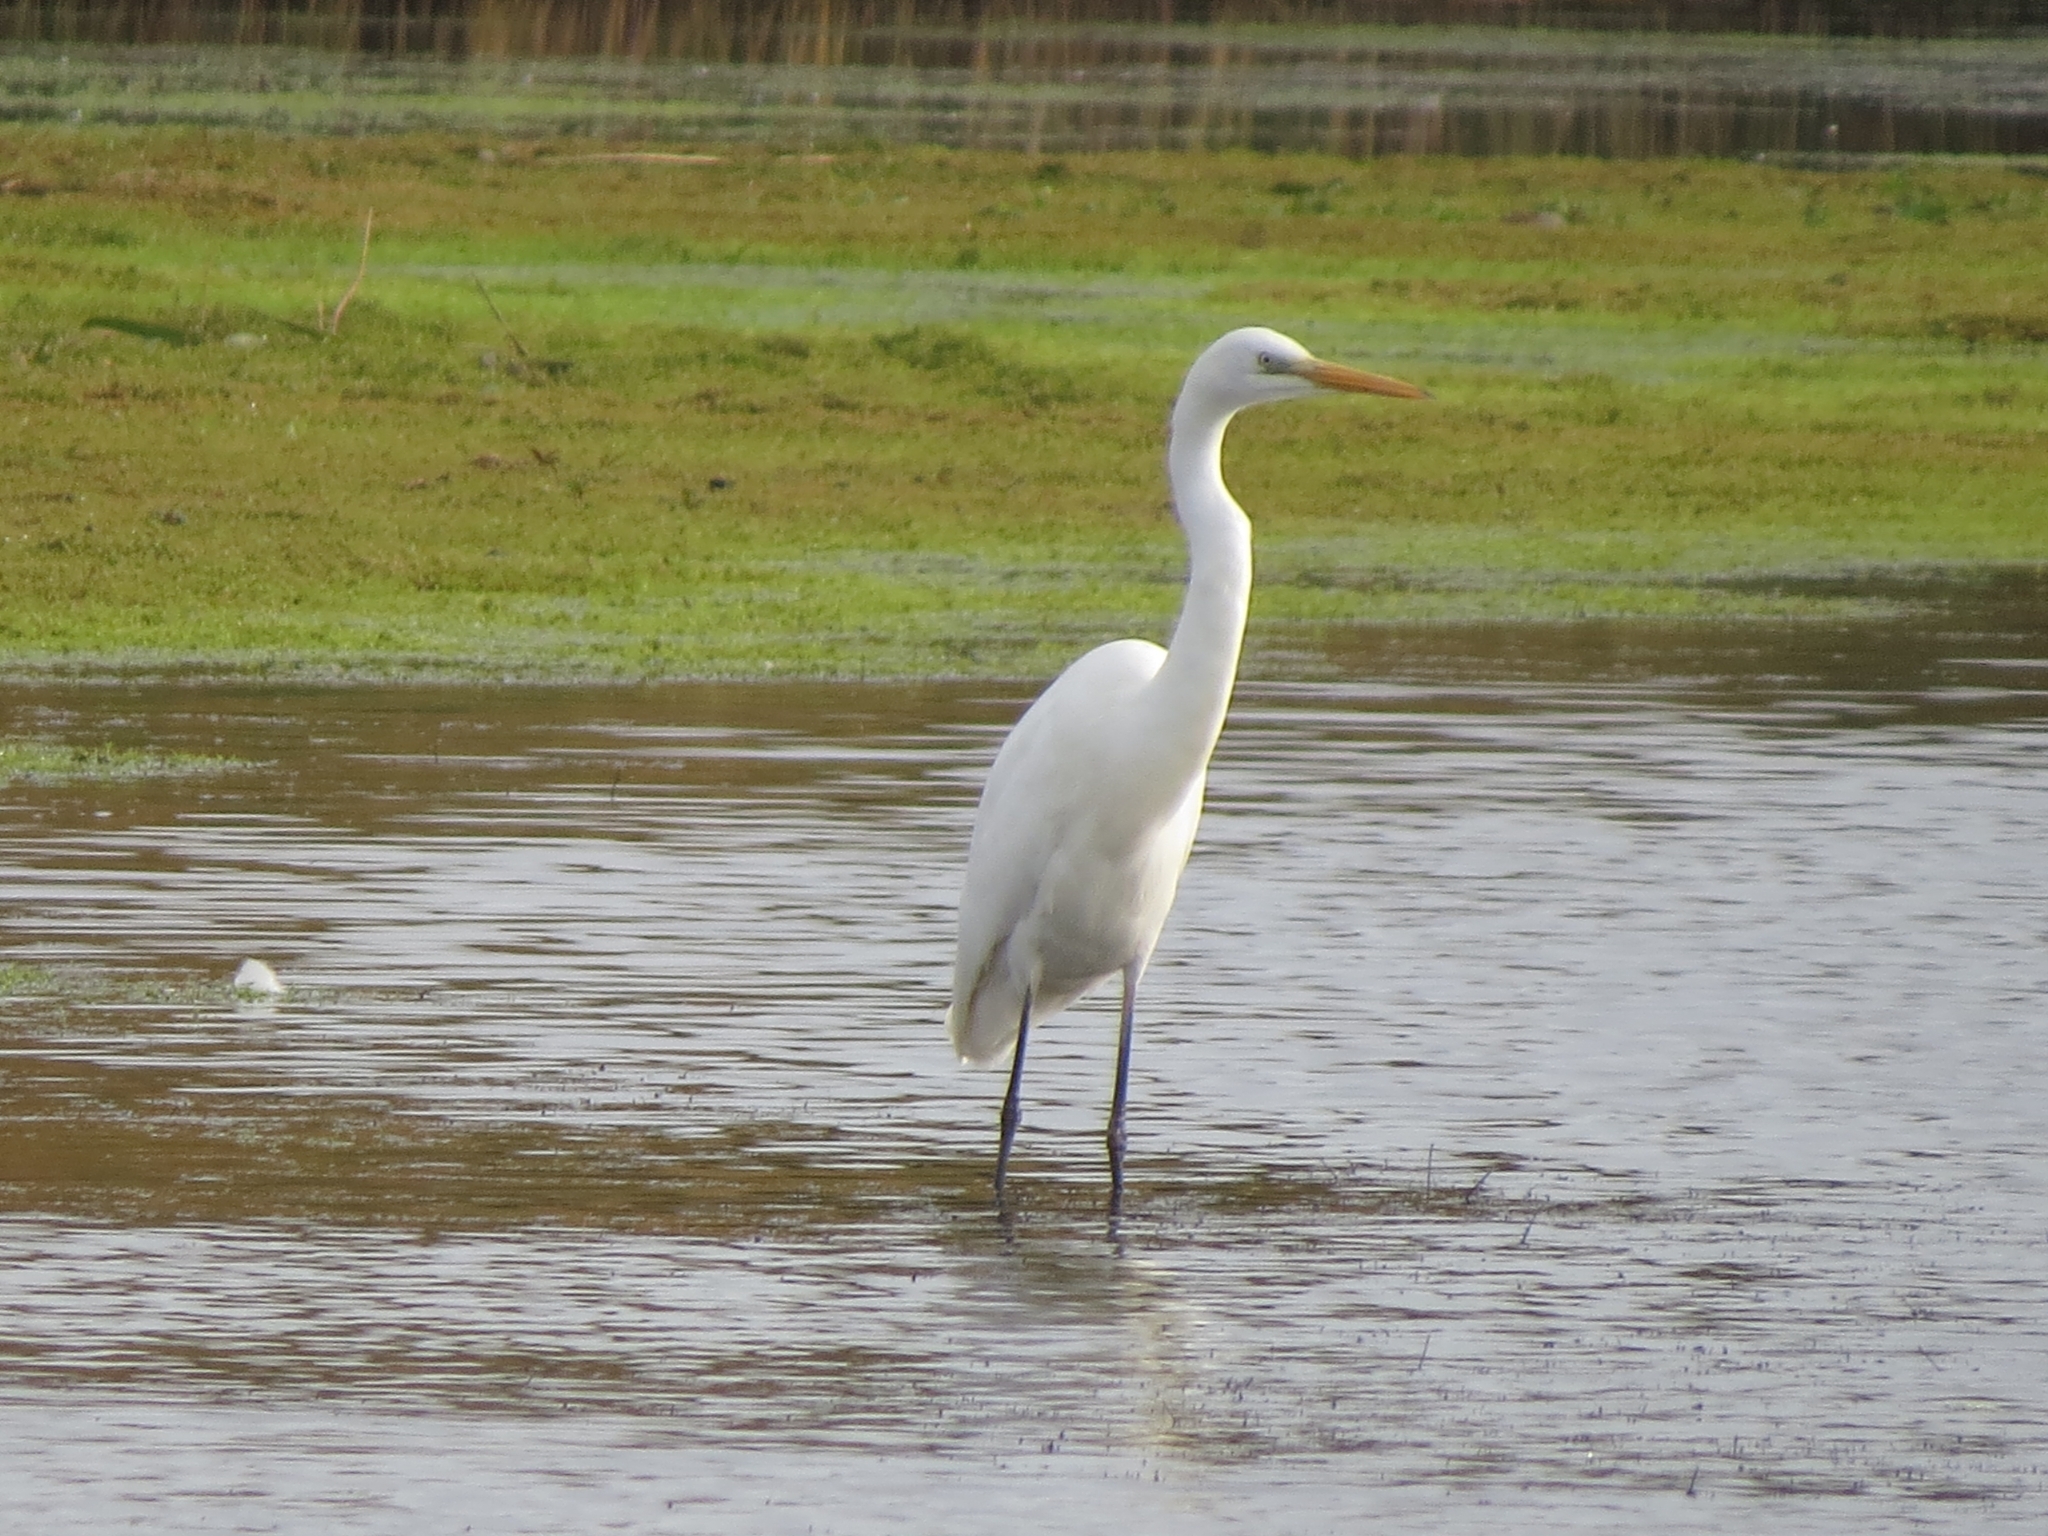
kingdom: Animalia
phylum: Chordata
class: Aves
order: Pelecaniformes
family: Ardeidae
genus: Ardea
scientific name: Ardea alba
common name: Great egret
